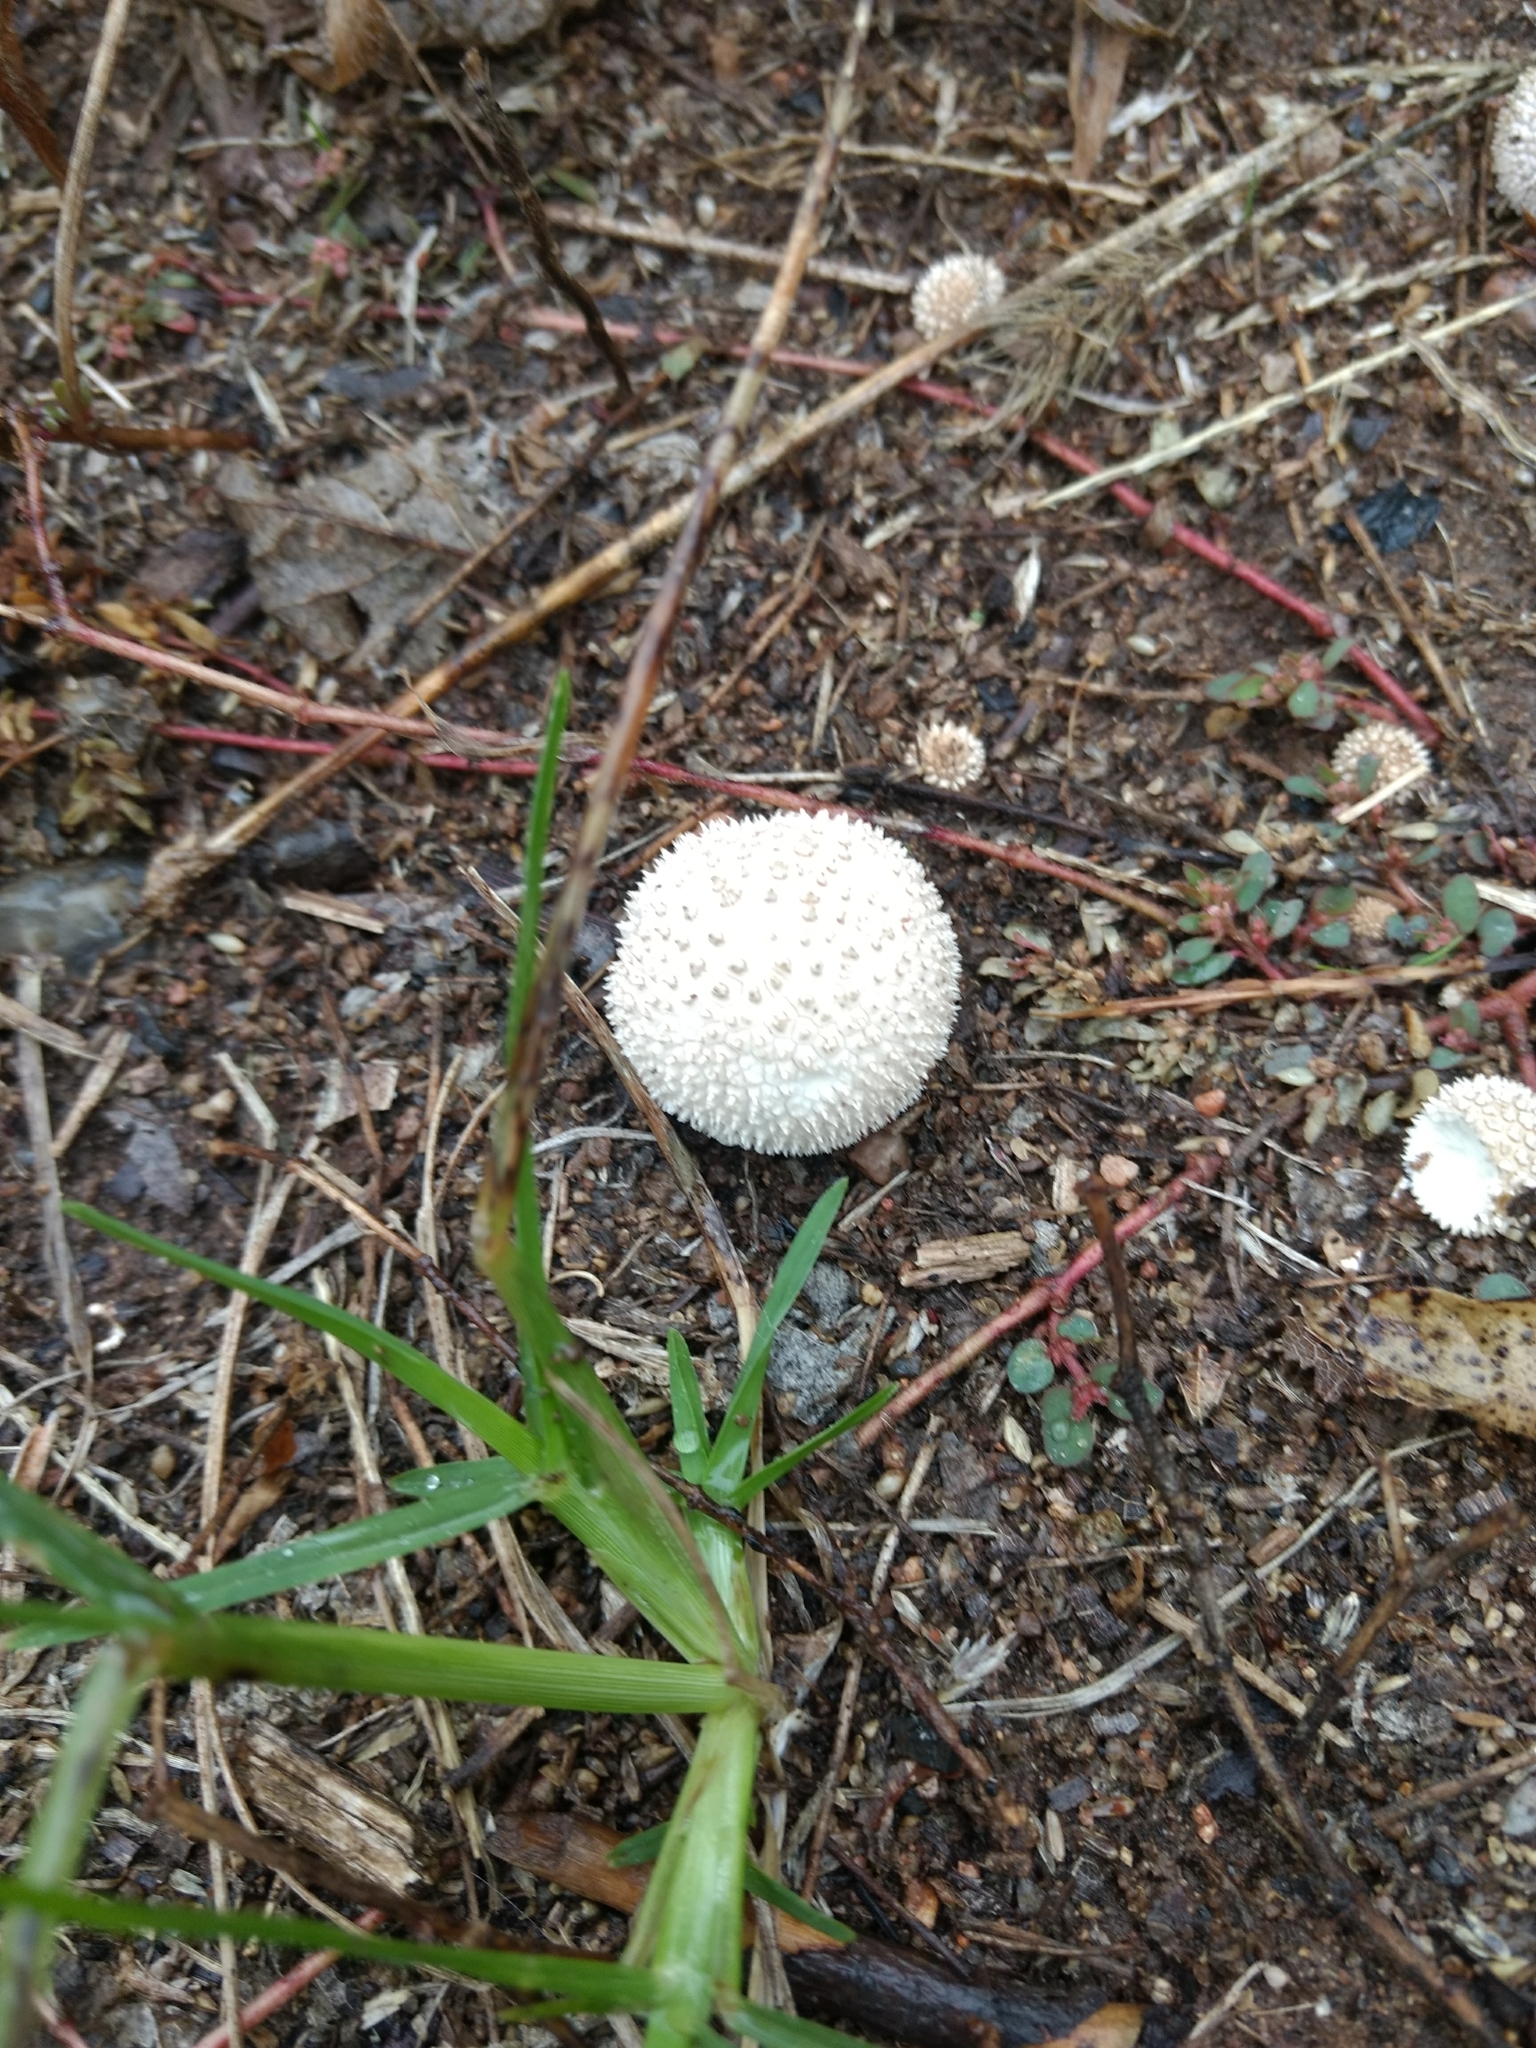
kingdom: Fungi
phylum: Basidiomycota
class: Agaricomycetes
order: Agaricales
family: Agaricaceae
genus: Lycoperdon
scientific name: Lycoperdon marginatum
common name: Peeling puffball
